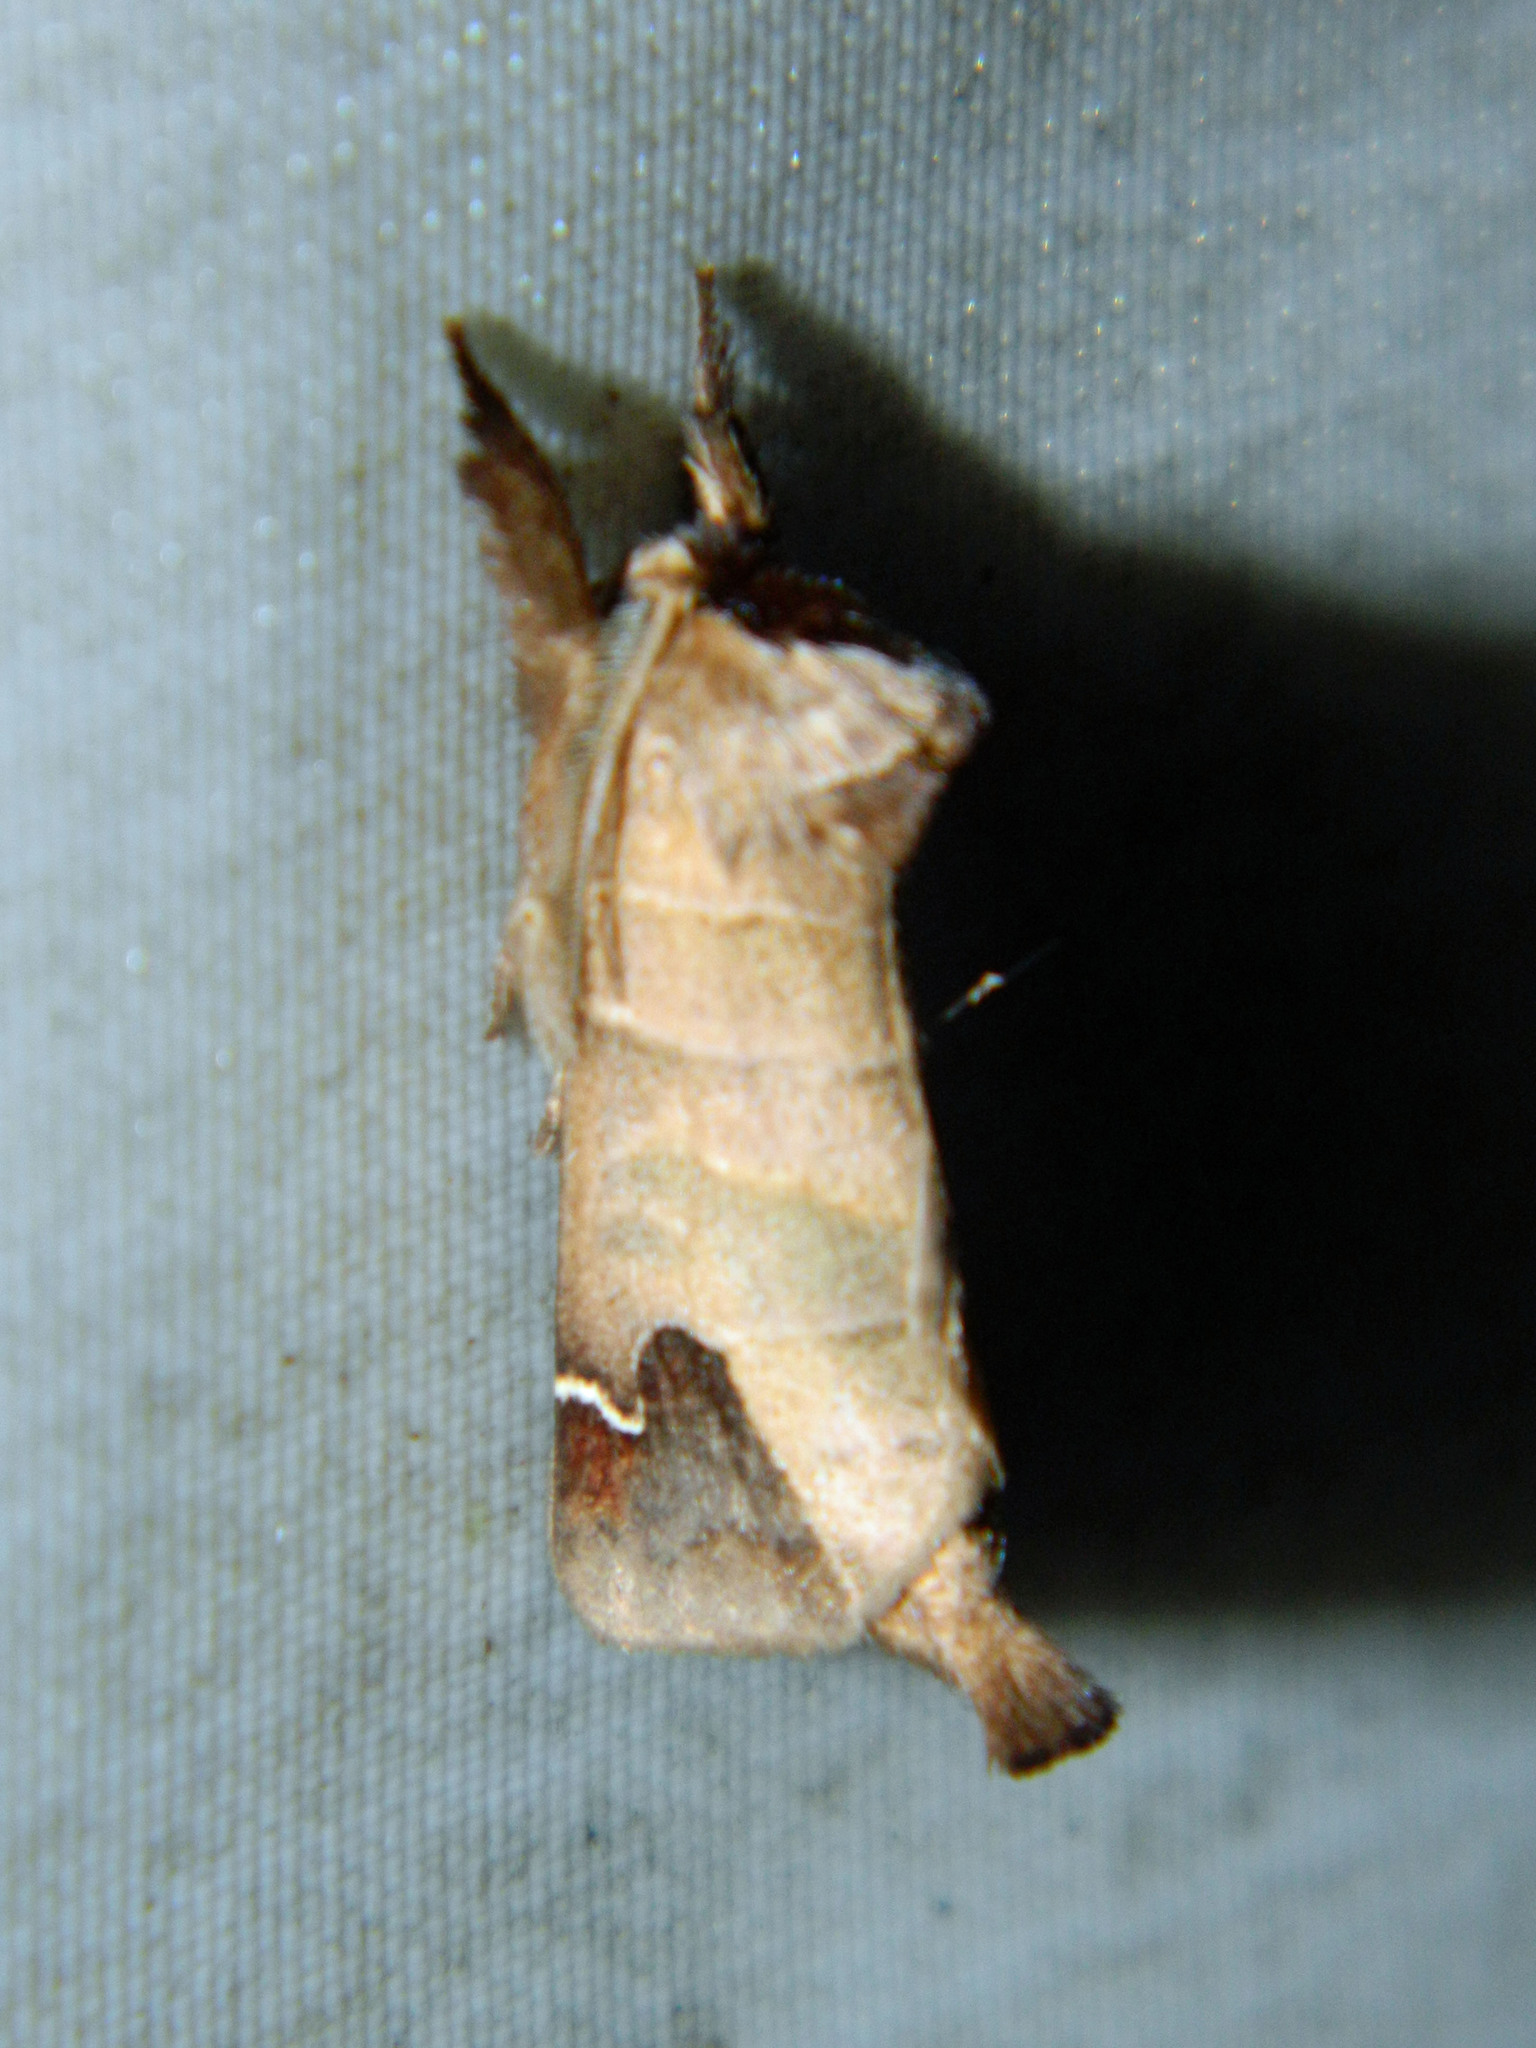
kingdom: Animalia
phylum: Arthropoda
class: Insecta
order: Lepidoptera
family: Notodontidae
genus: Clostera
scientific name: Clostera albosigma
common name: Sigmoid prominent
